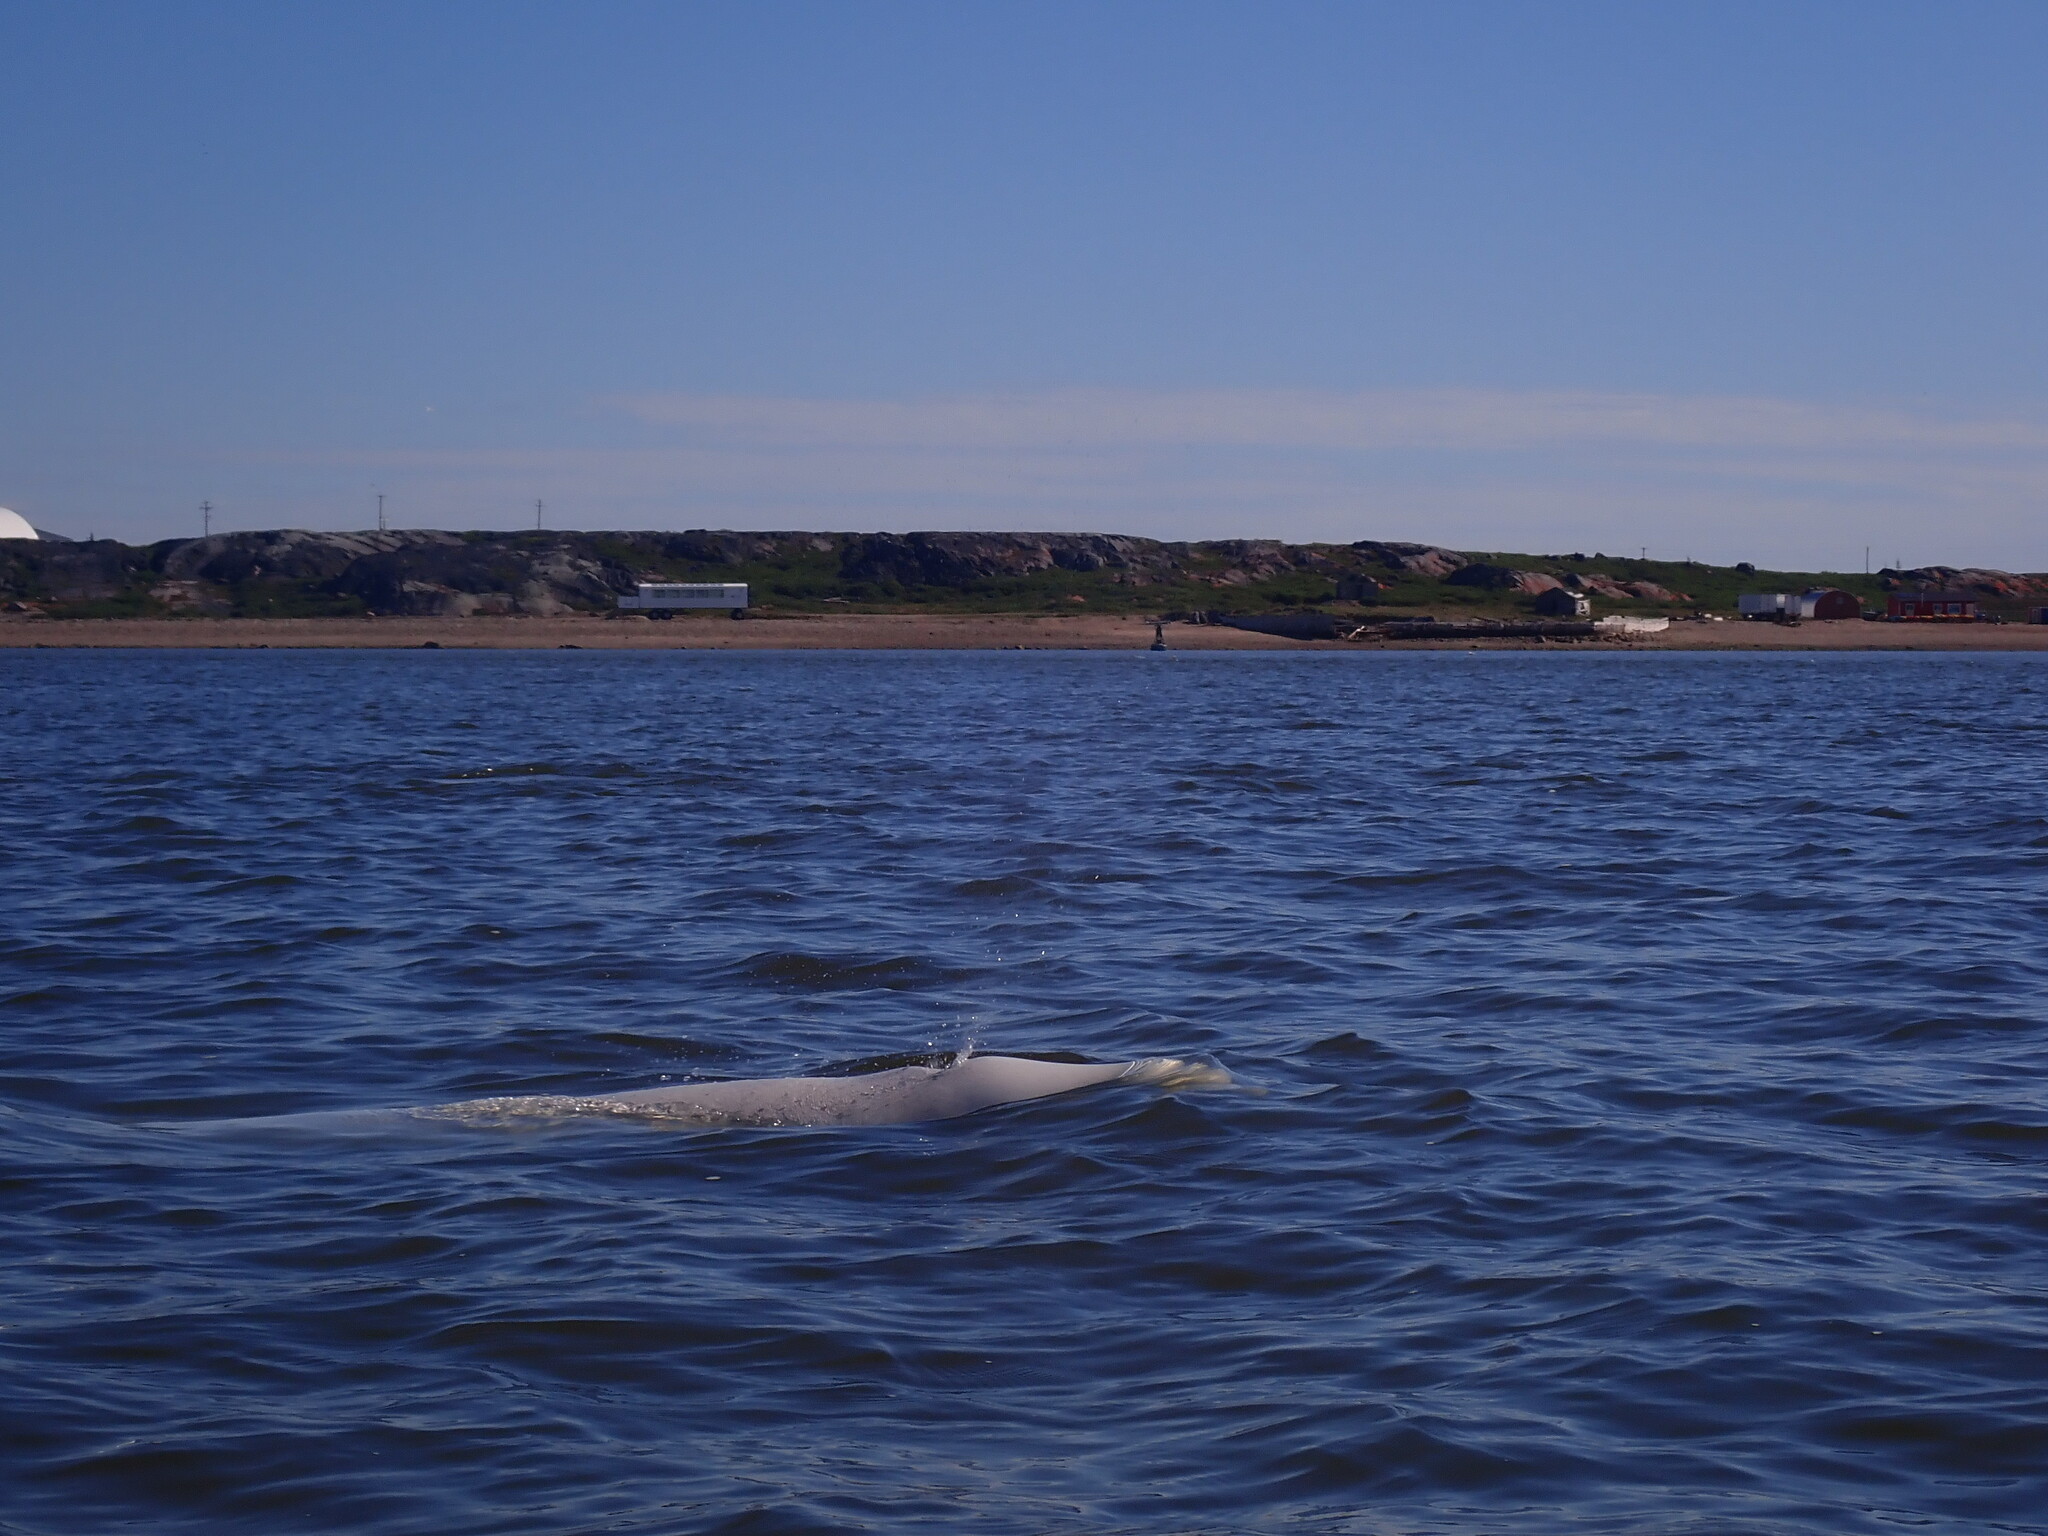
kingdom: Animalia
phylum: Chordata
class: Mammalia
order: Cetacea
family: Monodontidae
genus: Delphinapterus
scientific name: Delphinapterus leucas
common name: Beluga
